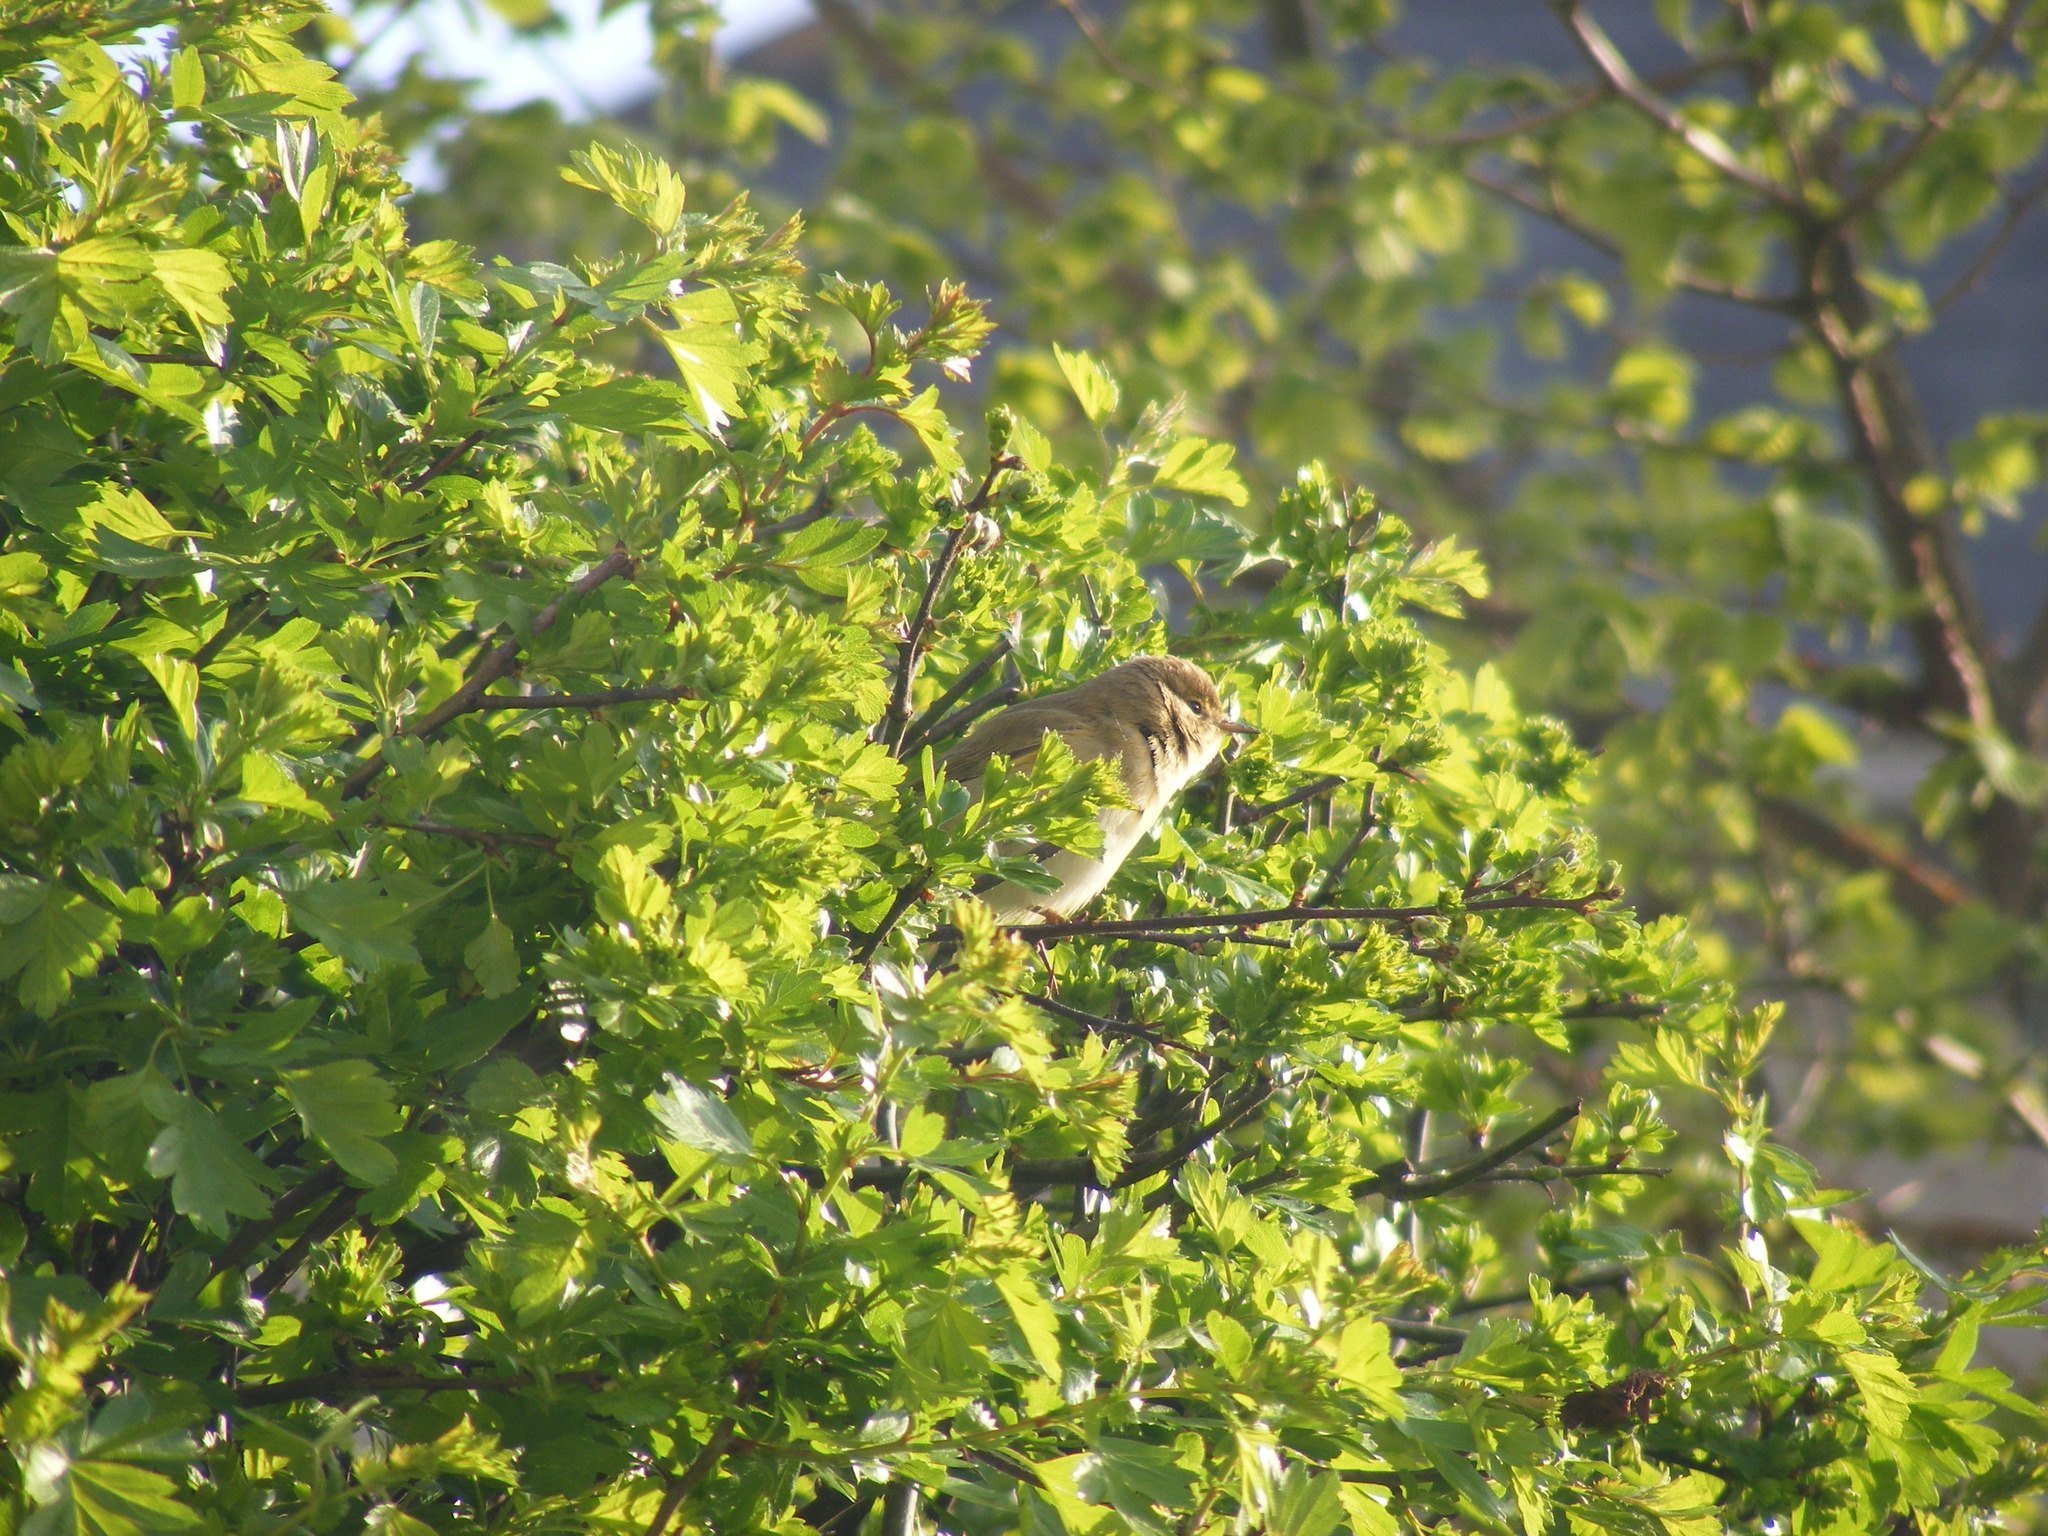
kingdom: Animalia
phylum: Chordata
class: Aves
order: Passeriformes
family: Phylloscopidae
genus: Phylloscopus
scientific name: Phylloscopus collybita
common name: Common chiffchaff
